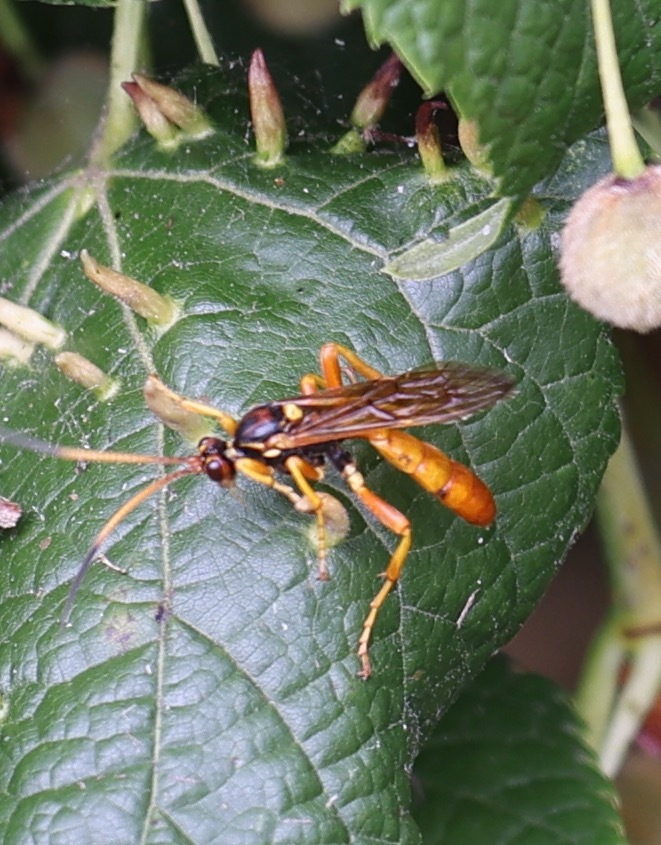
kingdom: Animalia
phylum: Arthropoda
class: Insecta
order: Hymenoptera
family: Ichneumonidae
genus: Callajoppa
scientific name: Callajoppa cirrogaster
